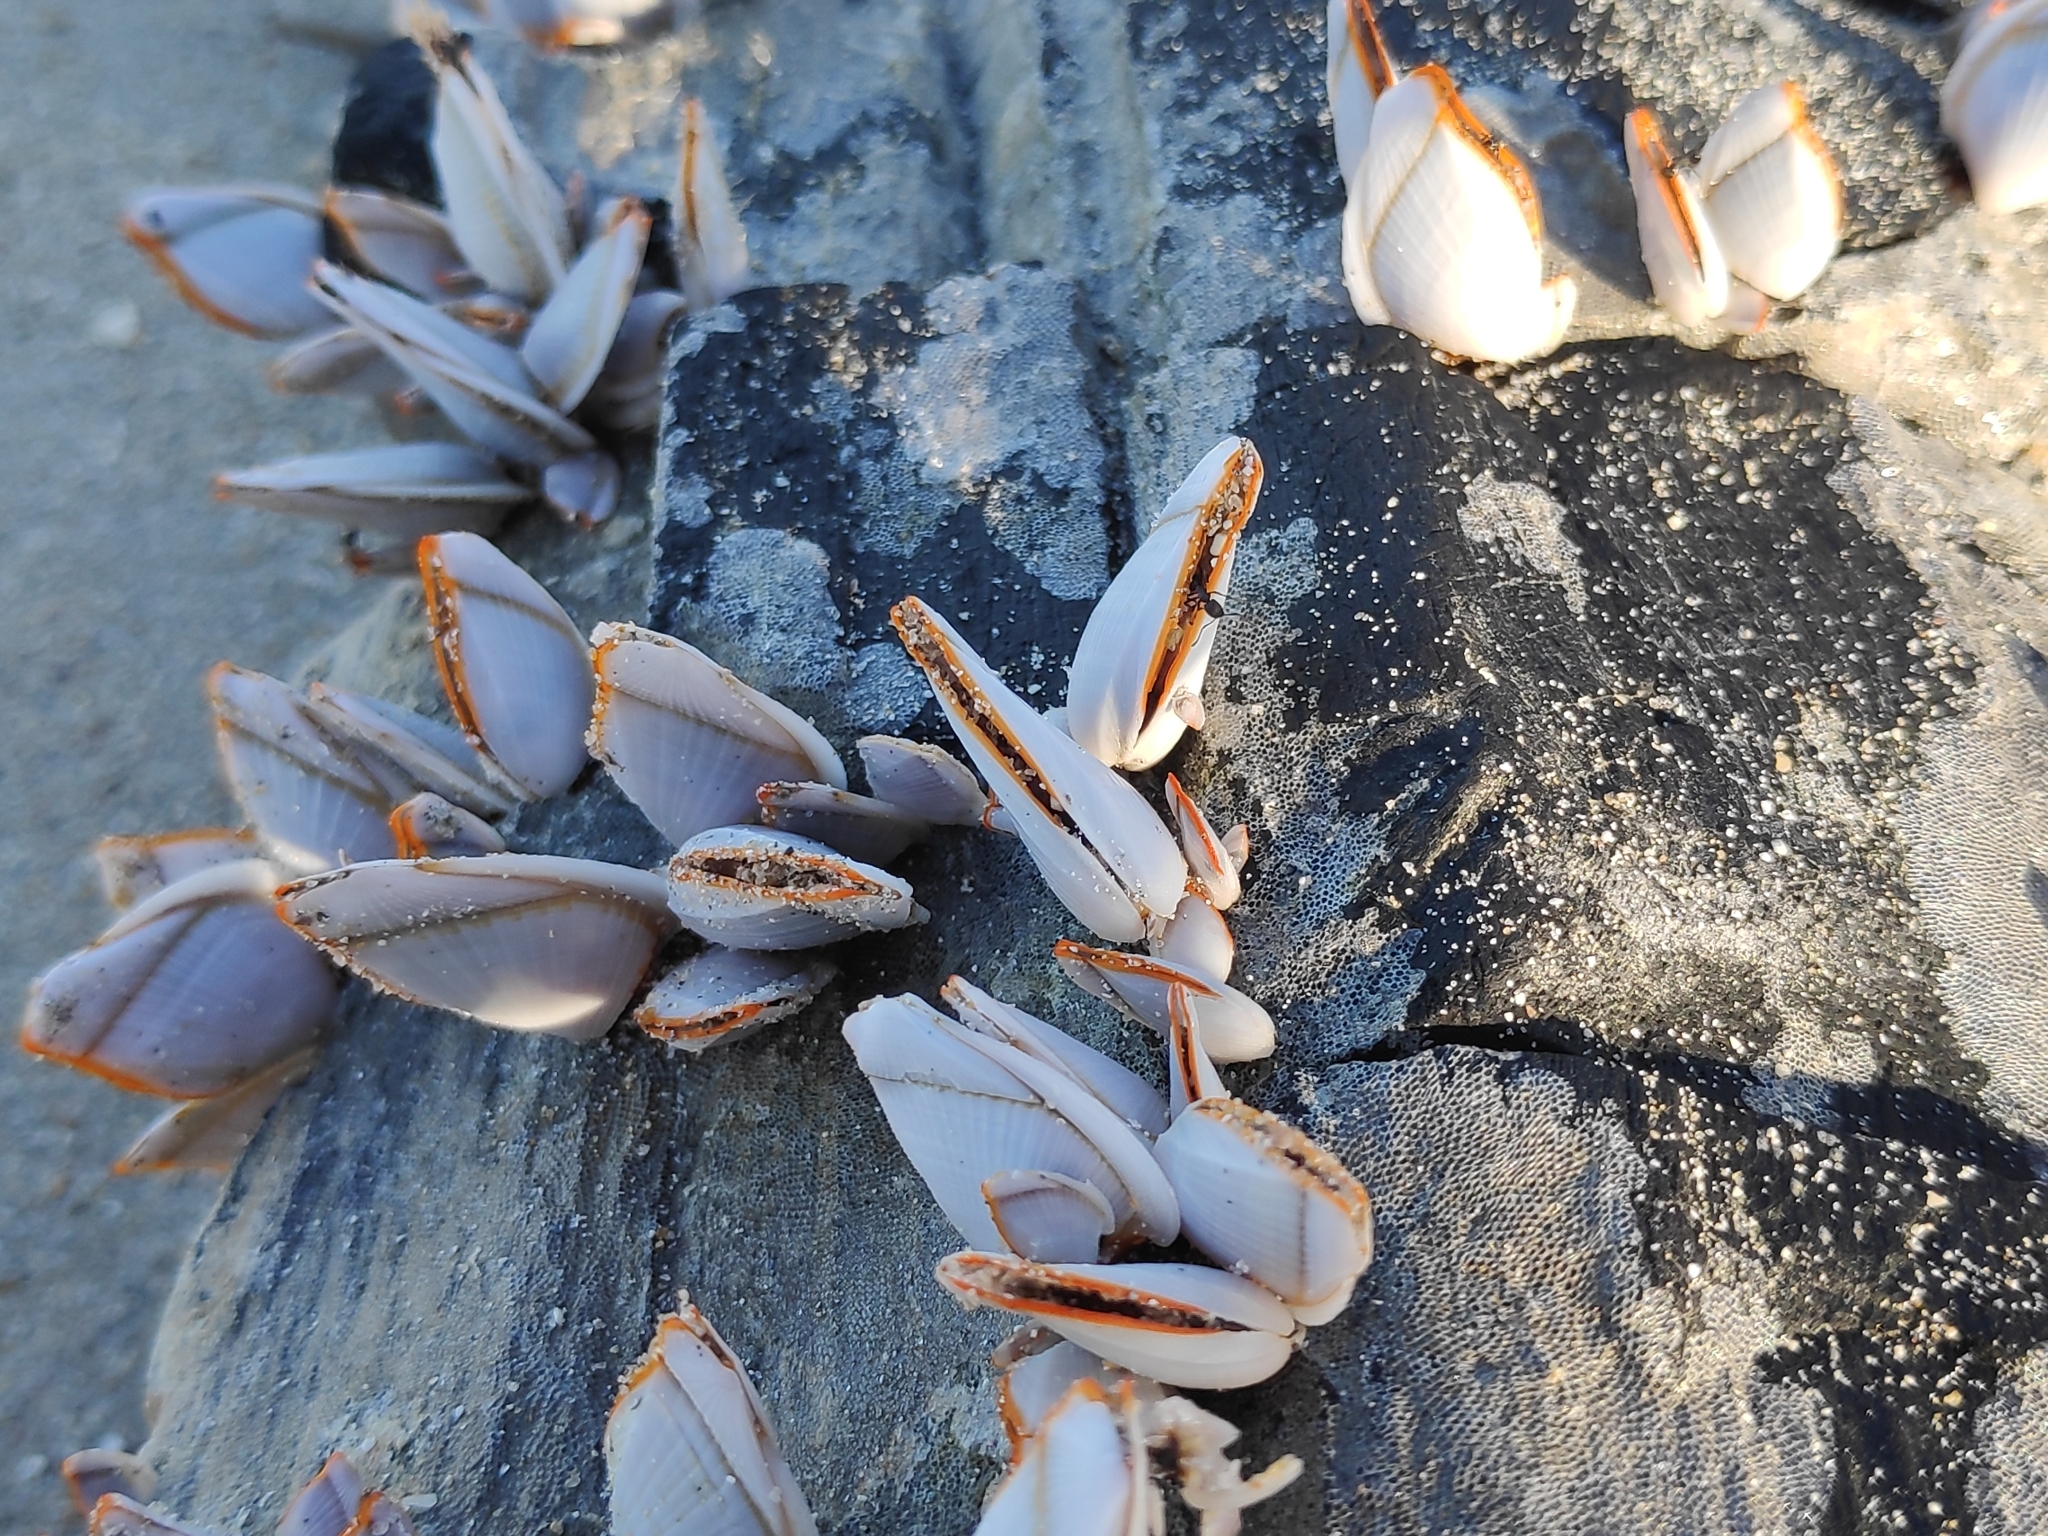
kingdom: Animalia
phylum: Arthropoda
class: Maxillopoda
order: Pedunculata
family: Lepadidae
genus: Lepas
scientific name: Lepas anserifera
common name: Goose barnacle
